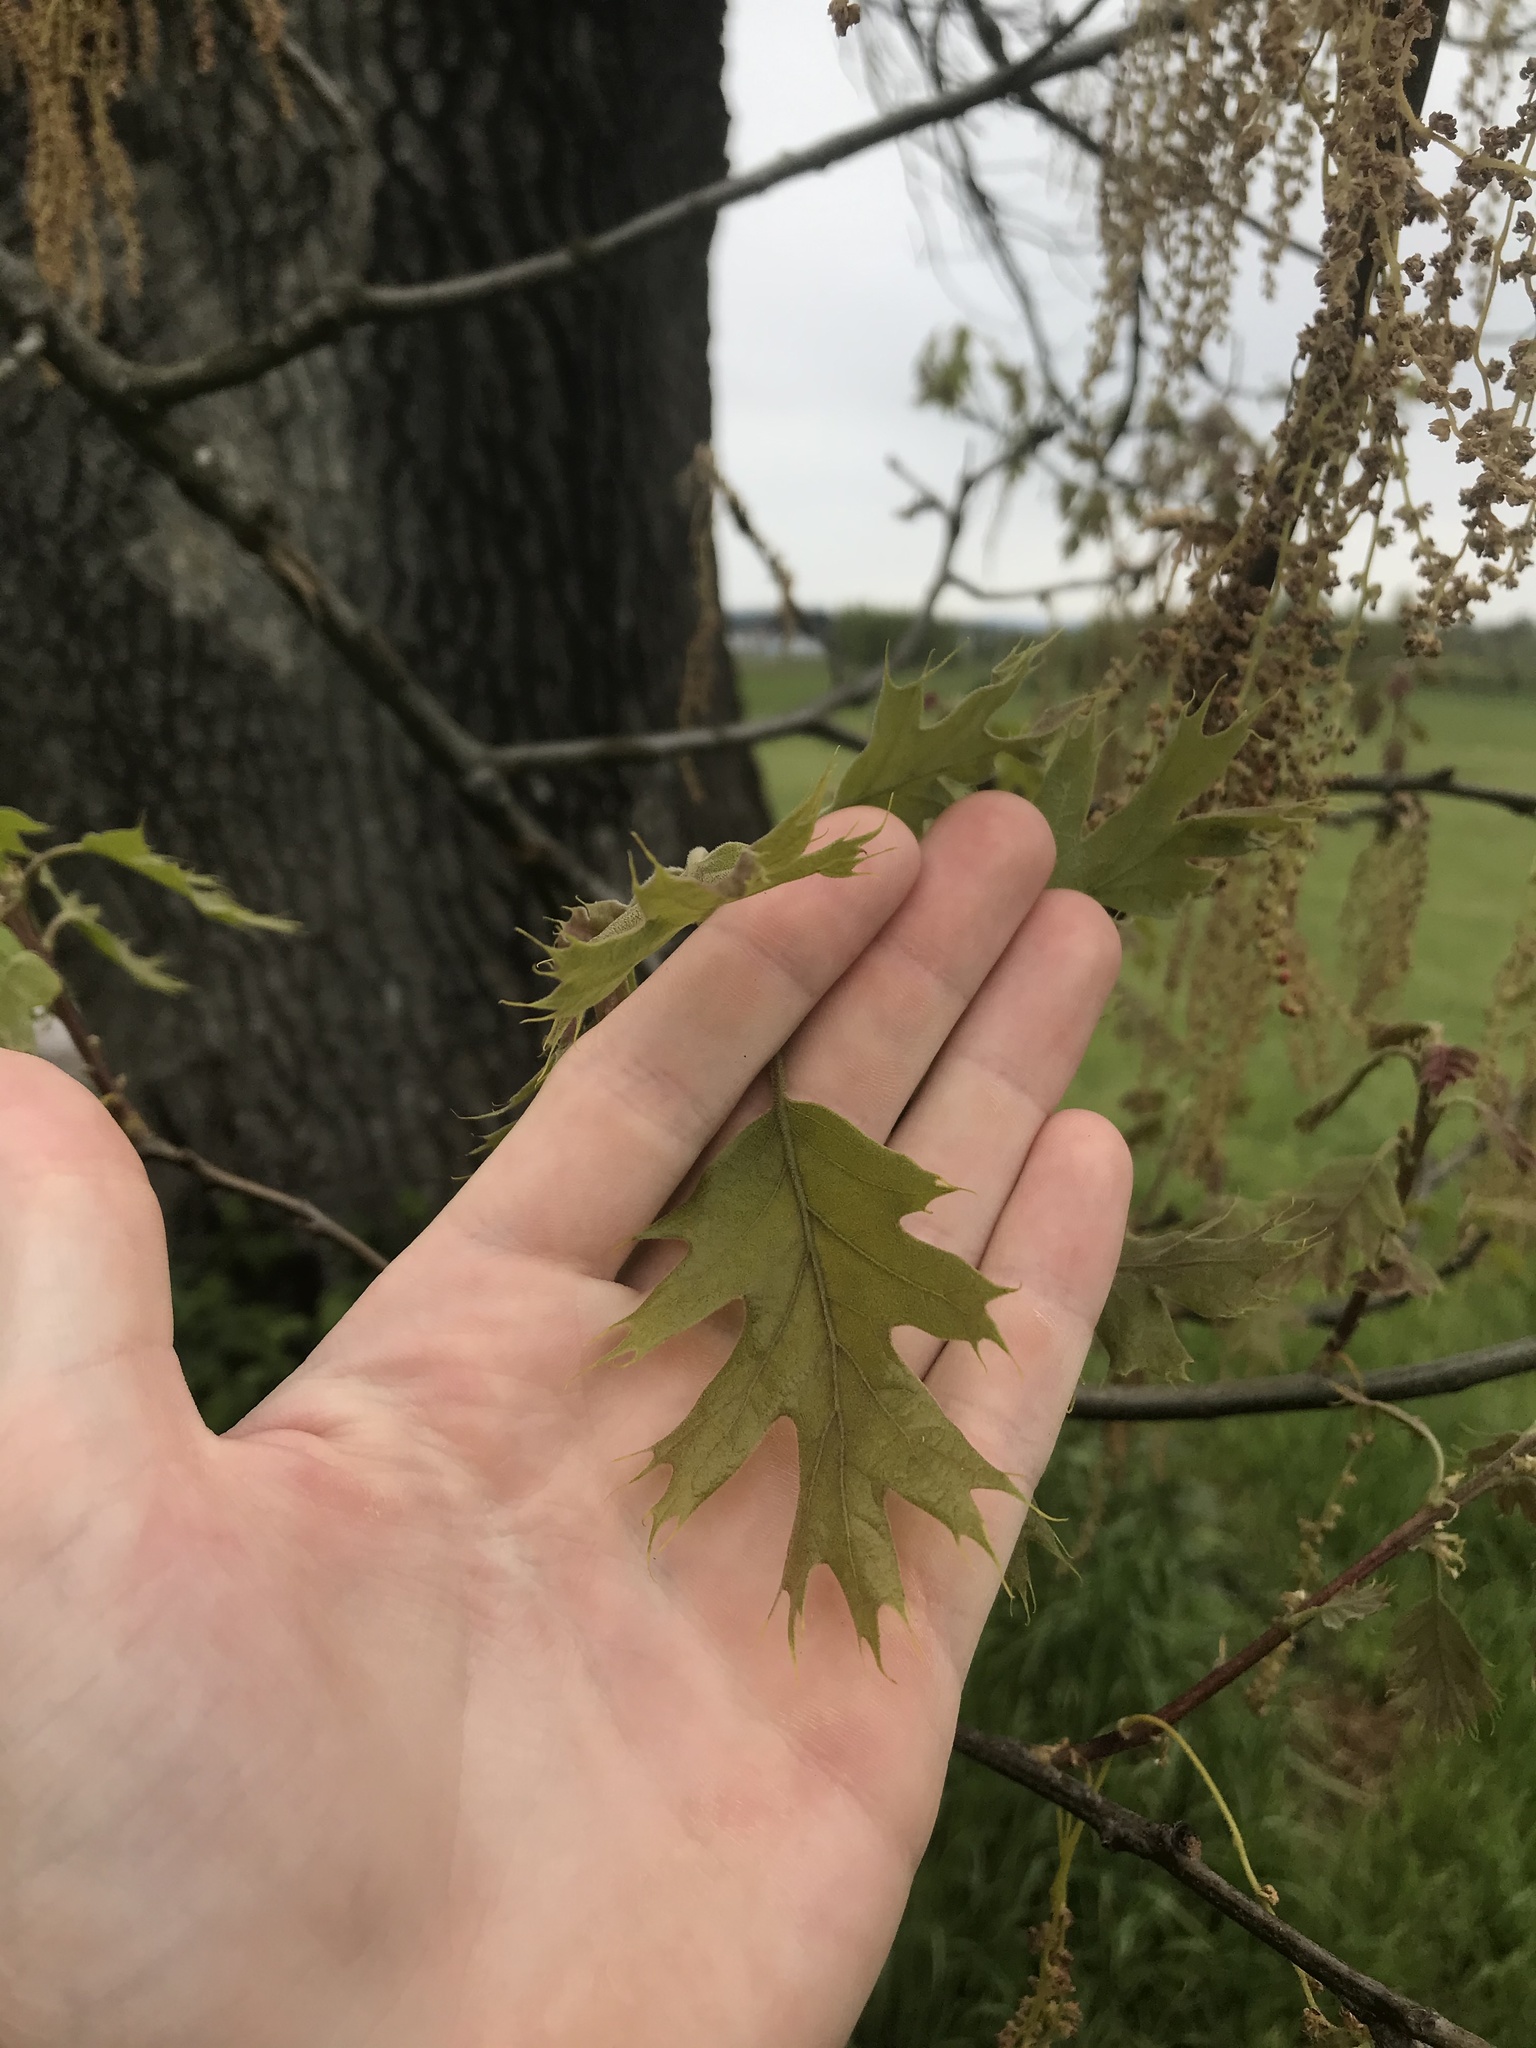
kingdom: Plantae
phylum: Tracheophyta
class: Magnoliopsida
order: Fagales
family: Fagaceae
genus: Quercus
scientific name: Quercus kelloggii
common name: California black oak
